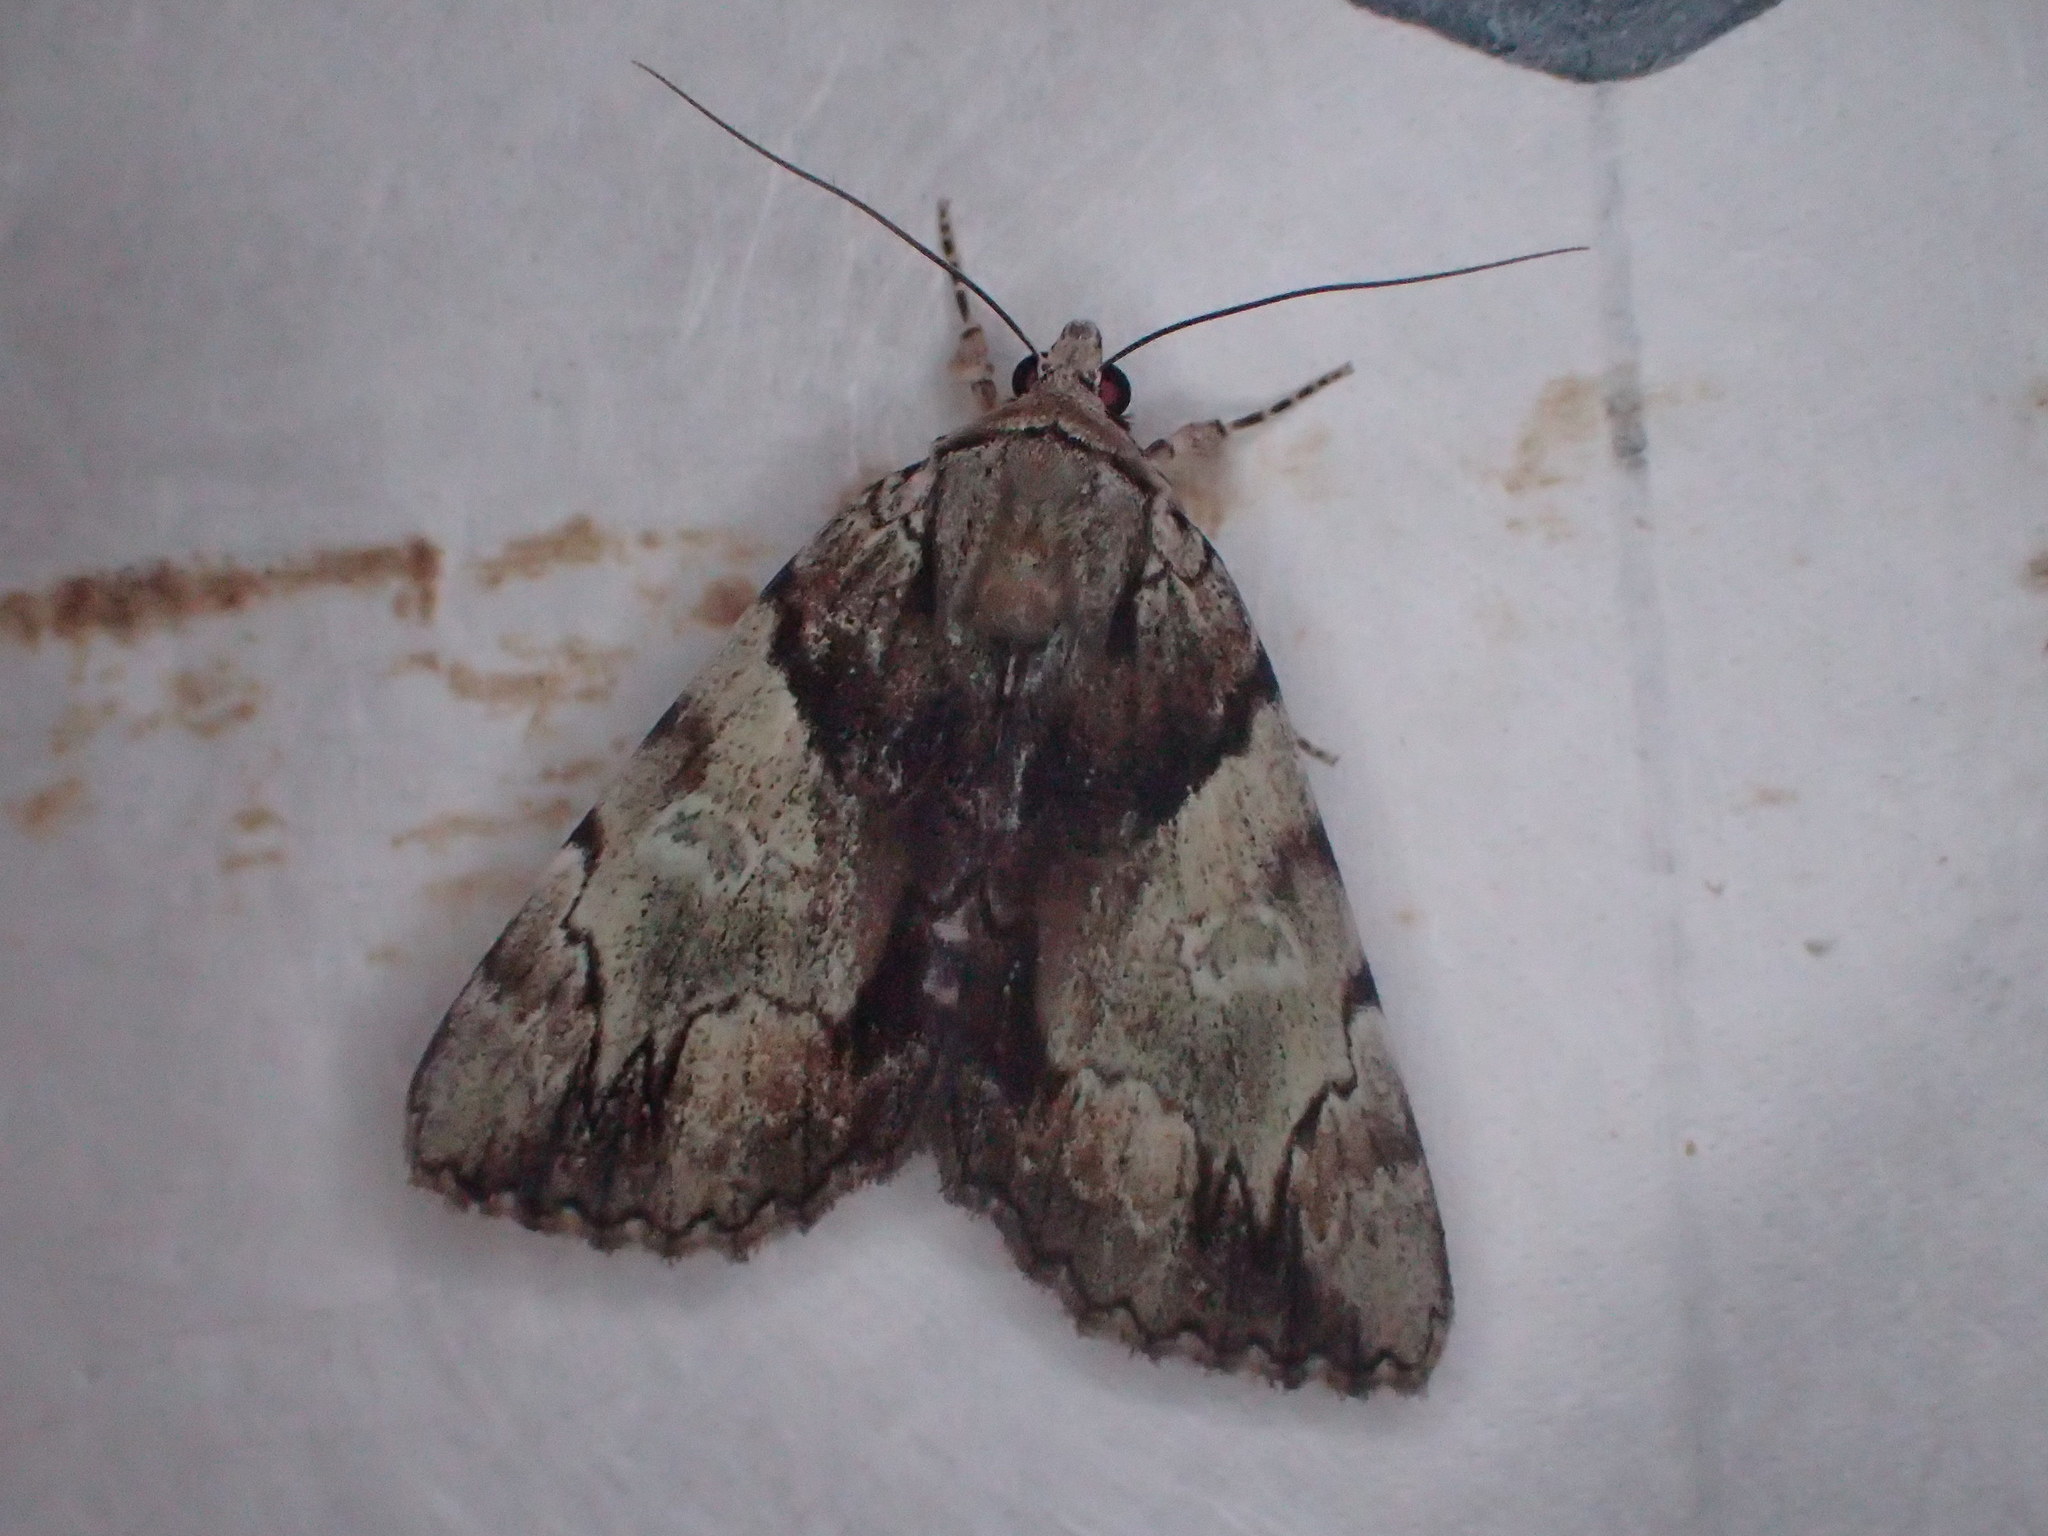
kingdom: Animalia
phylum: Arthropoda
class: Insecta
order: Lepidoptera
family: Erebidae
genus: Catocala
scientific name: Catocala crataegi
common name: Hawthorn underwing moth
